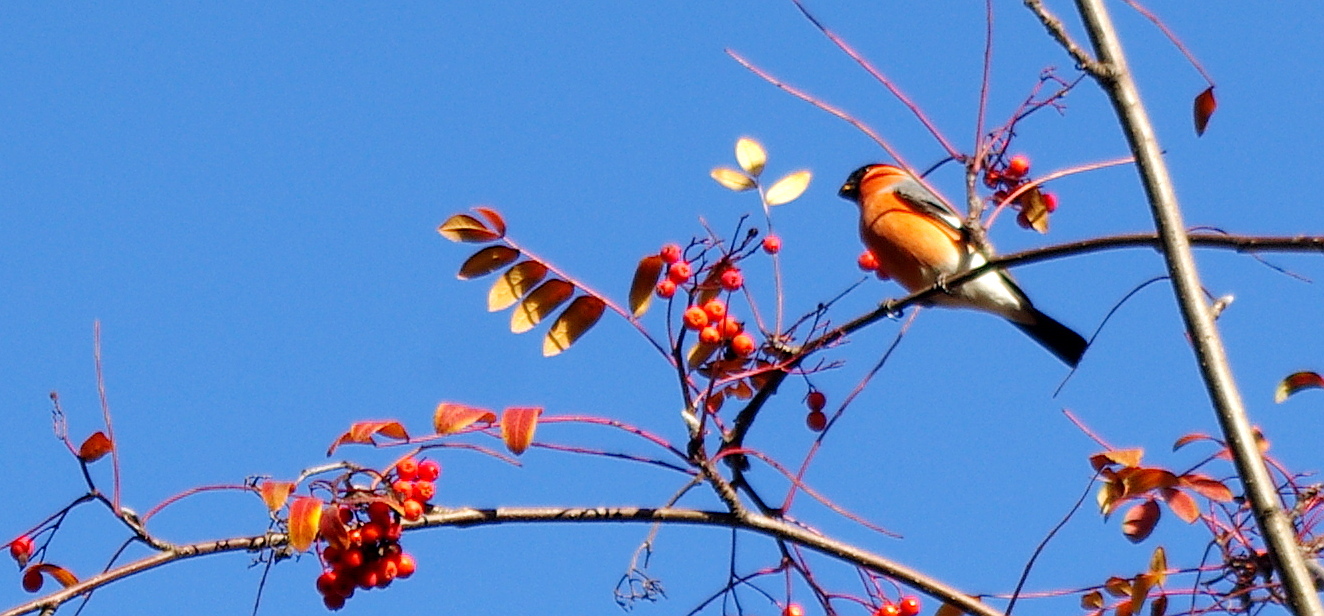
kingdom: Animalia
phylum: Chordata
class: Aves
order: Passeriformes
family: Fringillidae
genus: Pyrrhula
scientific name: Pyrrhula pyrrhula
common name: Eurasian bullfinch
